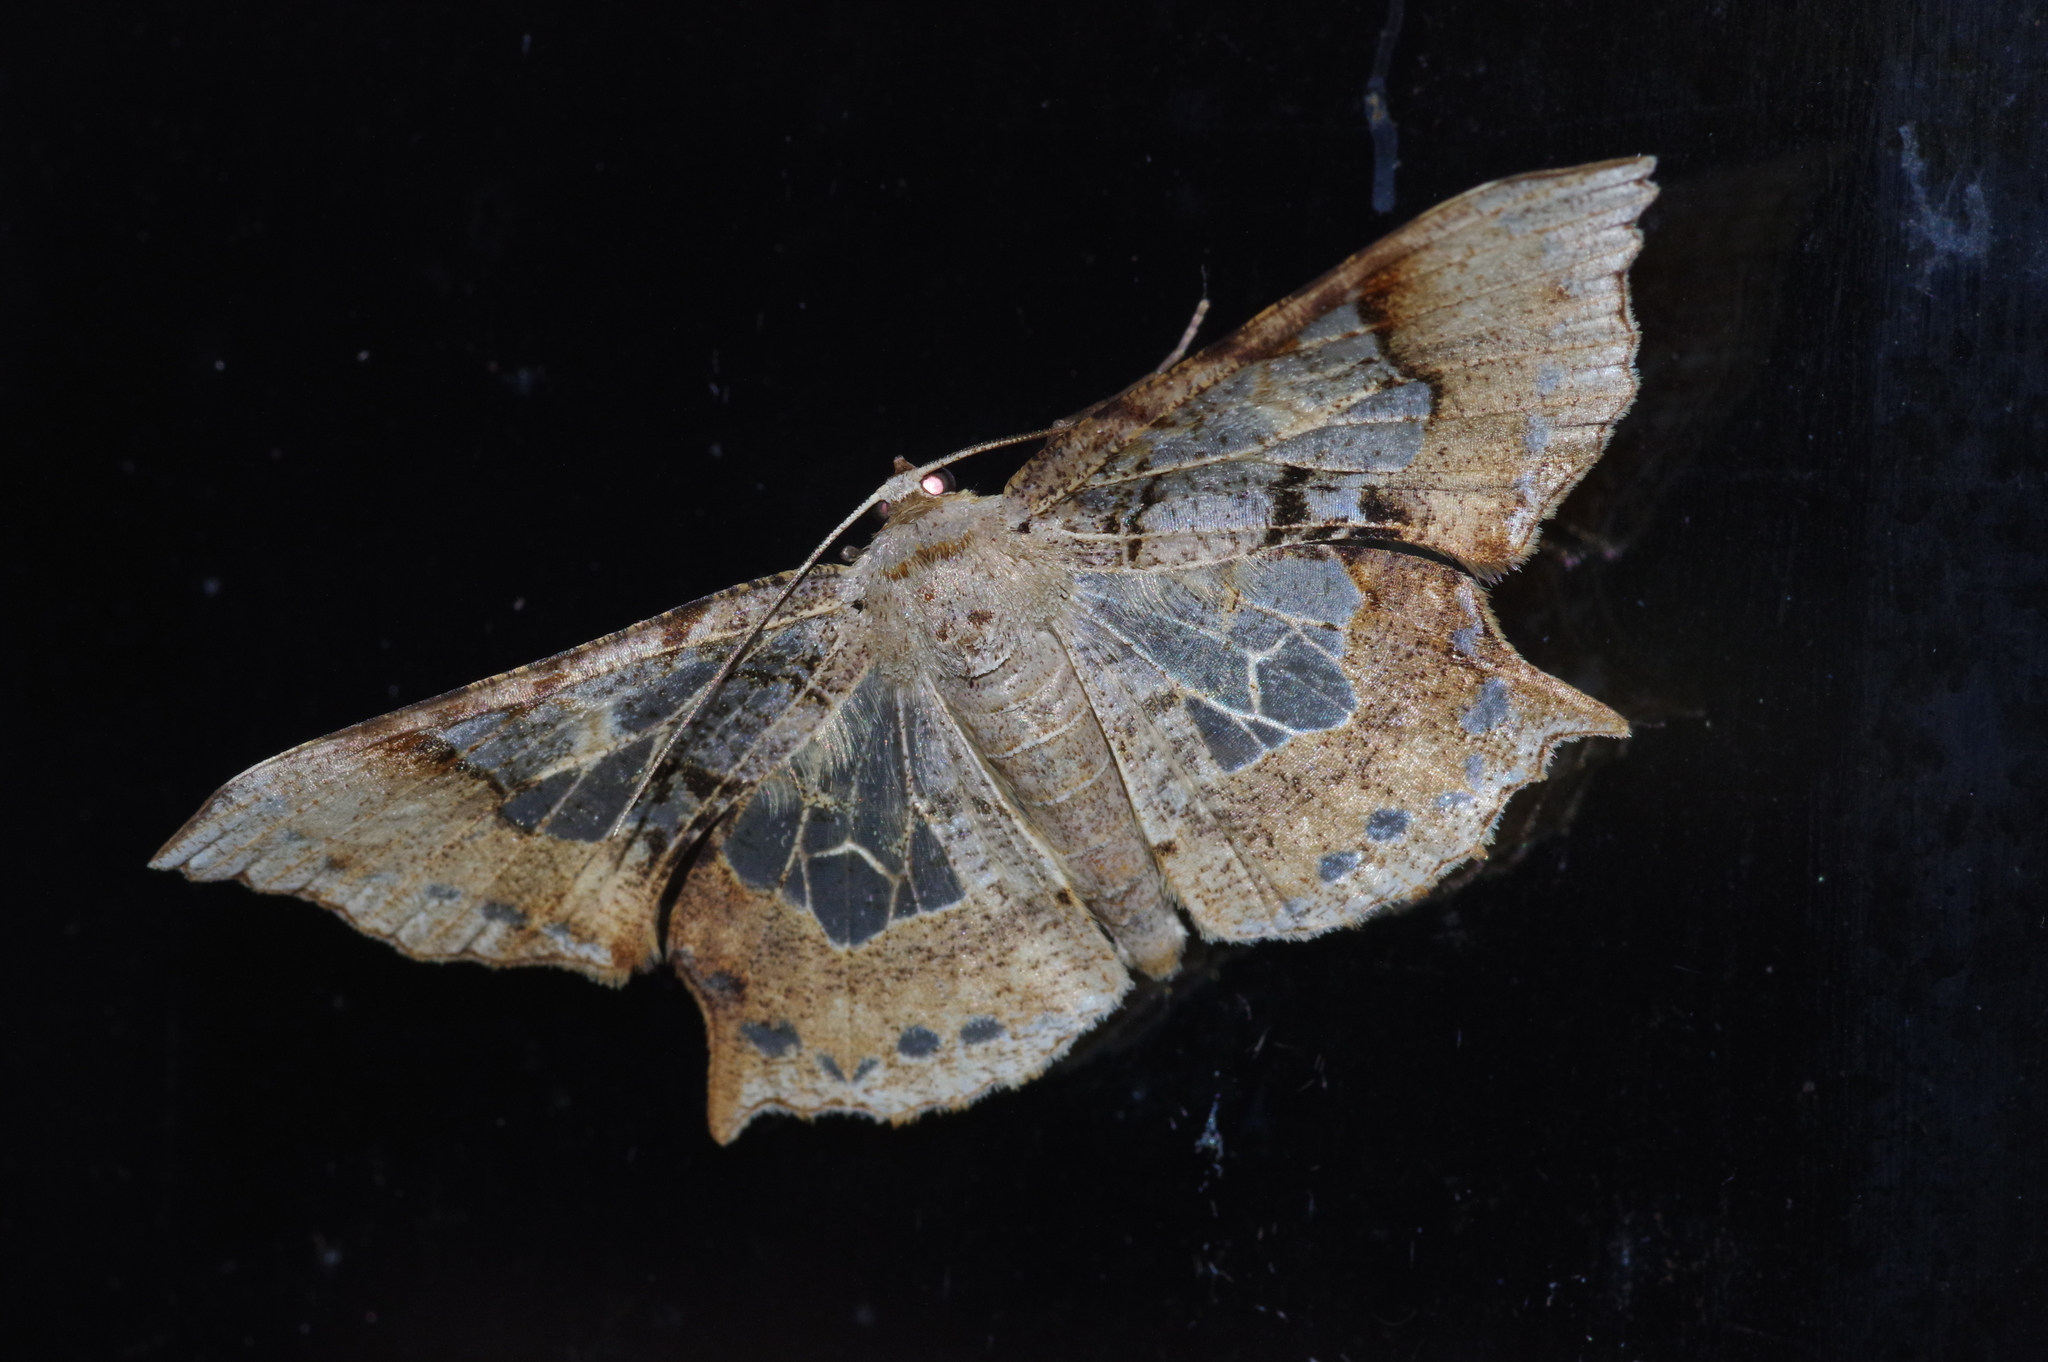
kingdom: Animalia
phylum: Arthropoda
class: Insecta
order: Lepidoptera
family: Geometridae
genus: Krananda
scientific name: Krananda semihyalina
